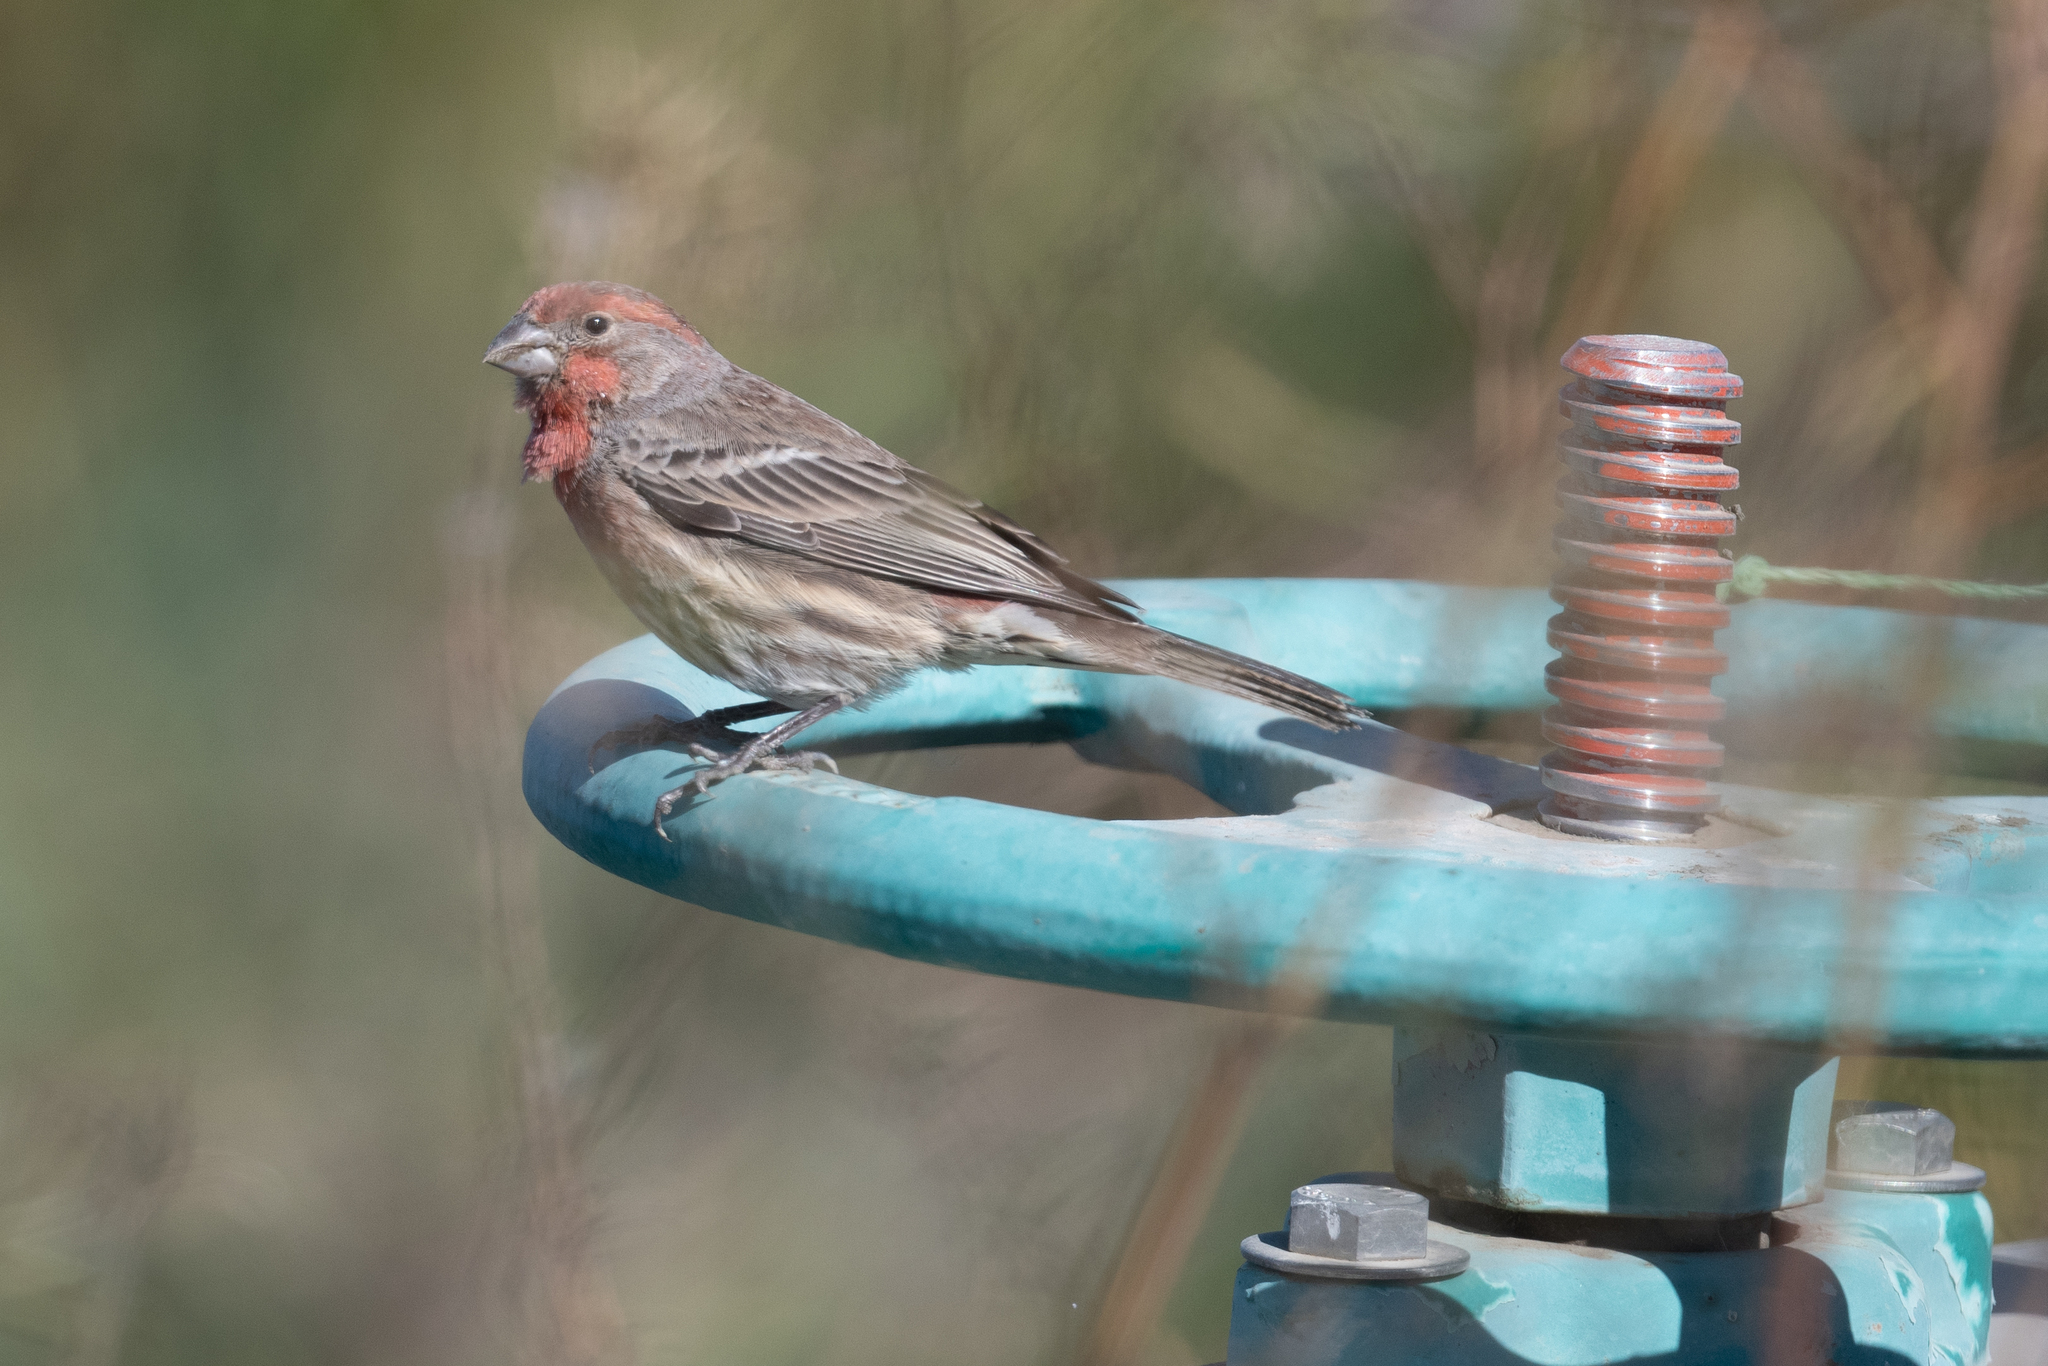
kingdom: Animalia
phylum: Chordata
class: Aves
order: Passeriformes
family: Fringillidae
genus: Haemorhous
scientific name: Haemorhous mexicanus
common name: House finch
